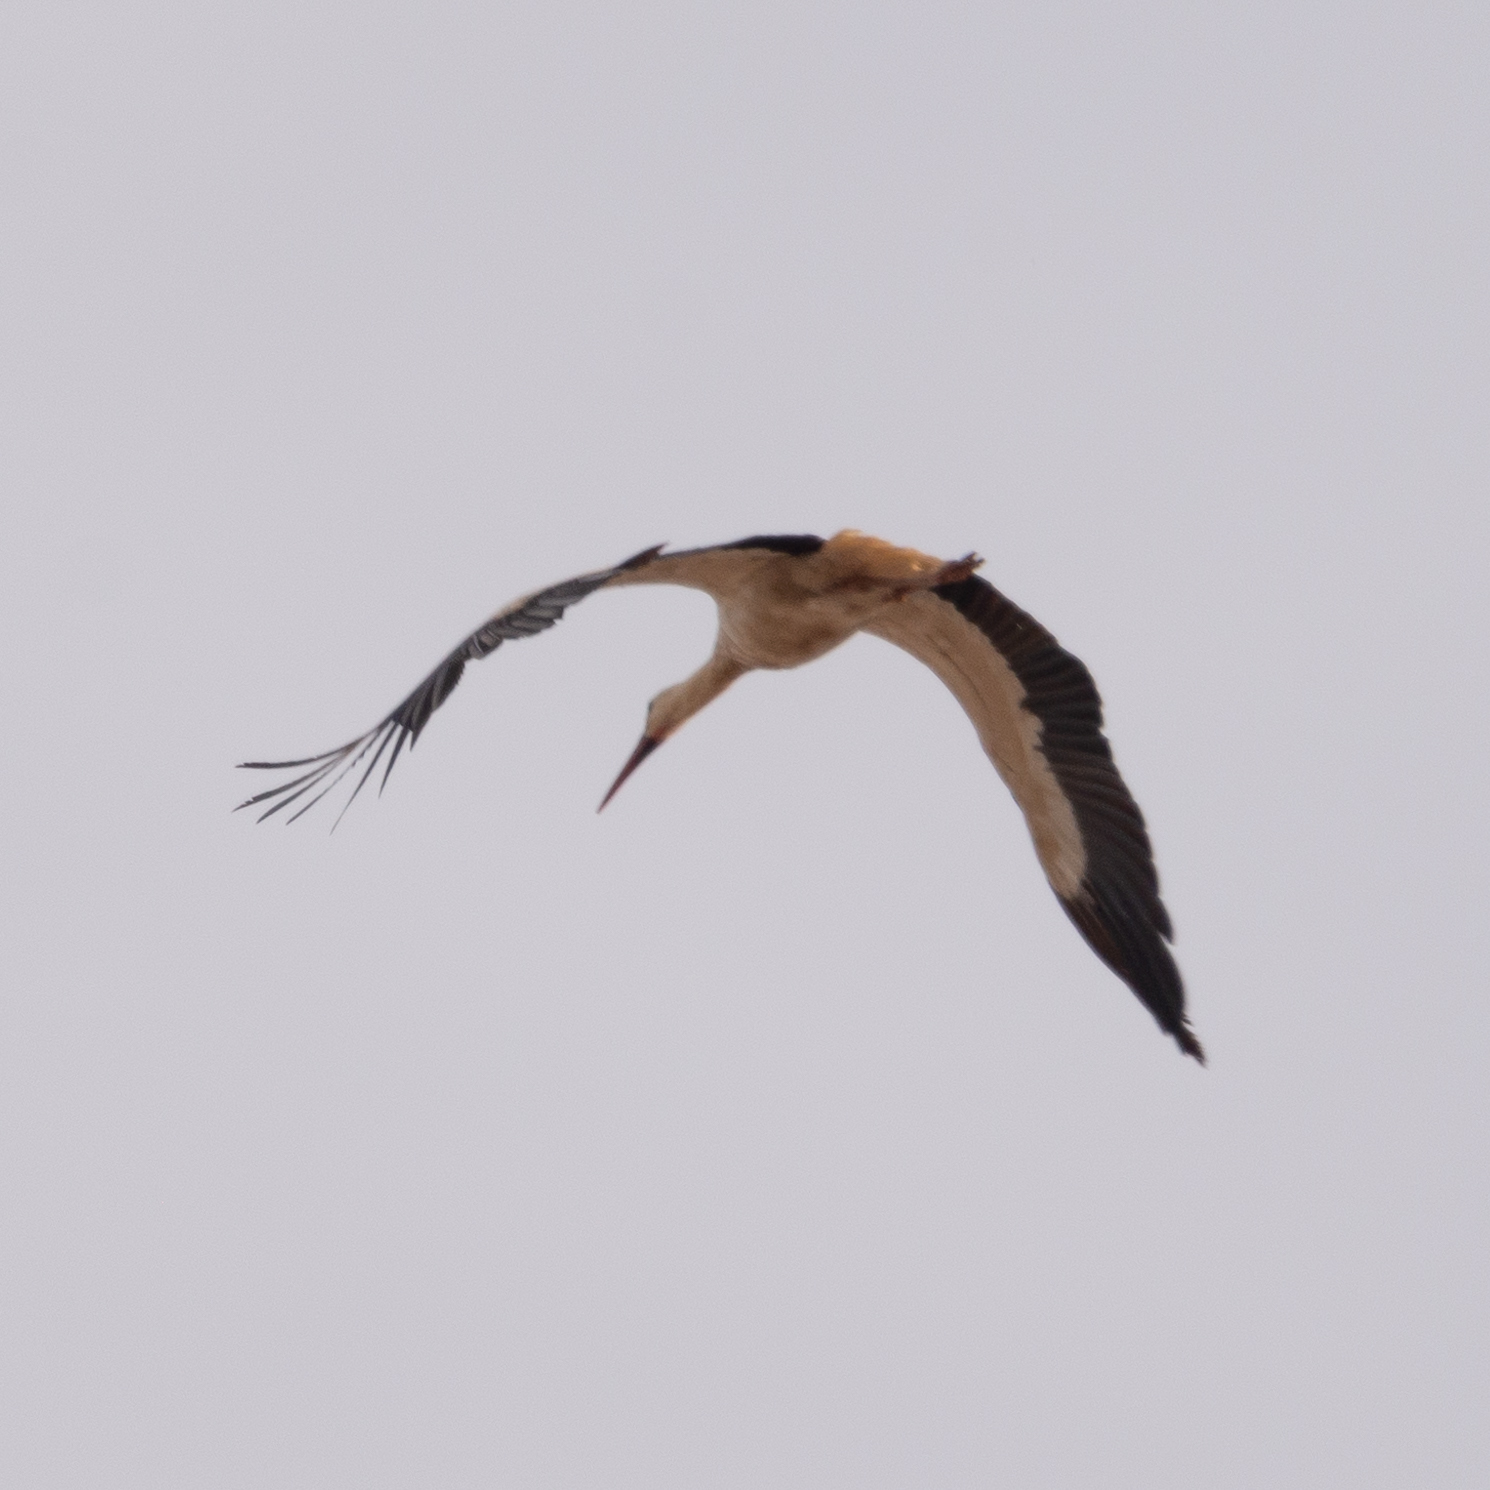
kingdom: Animalia
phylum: Chordata
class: Aves
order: Ciconiiformes
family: Ciconiidae
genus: Ciconia
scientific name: Ciconia ciconia
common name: White stork
